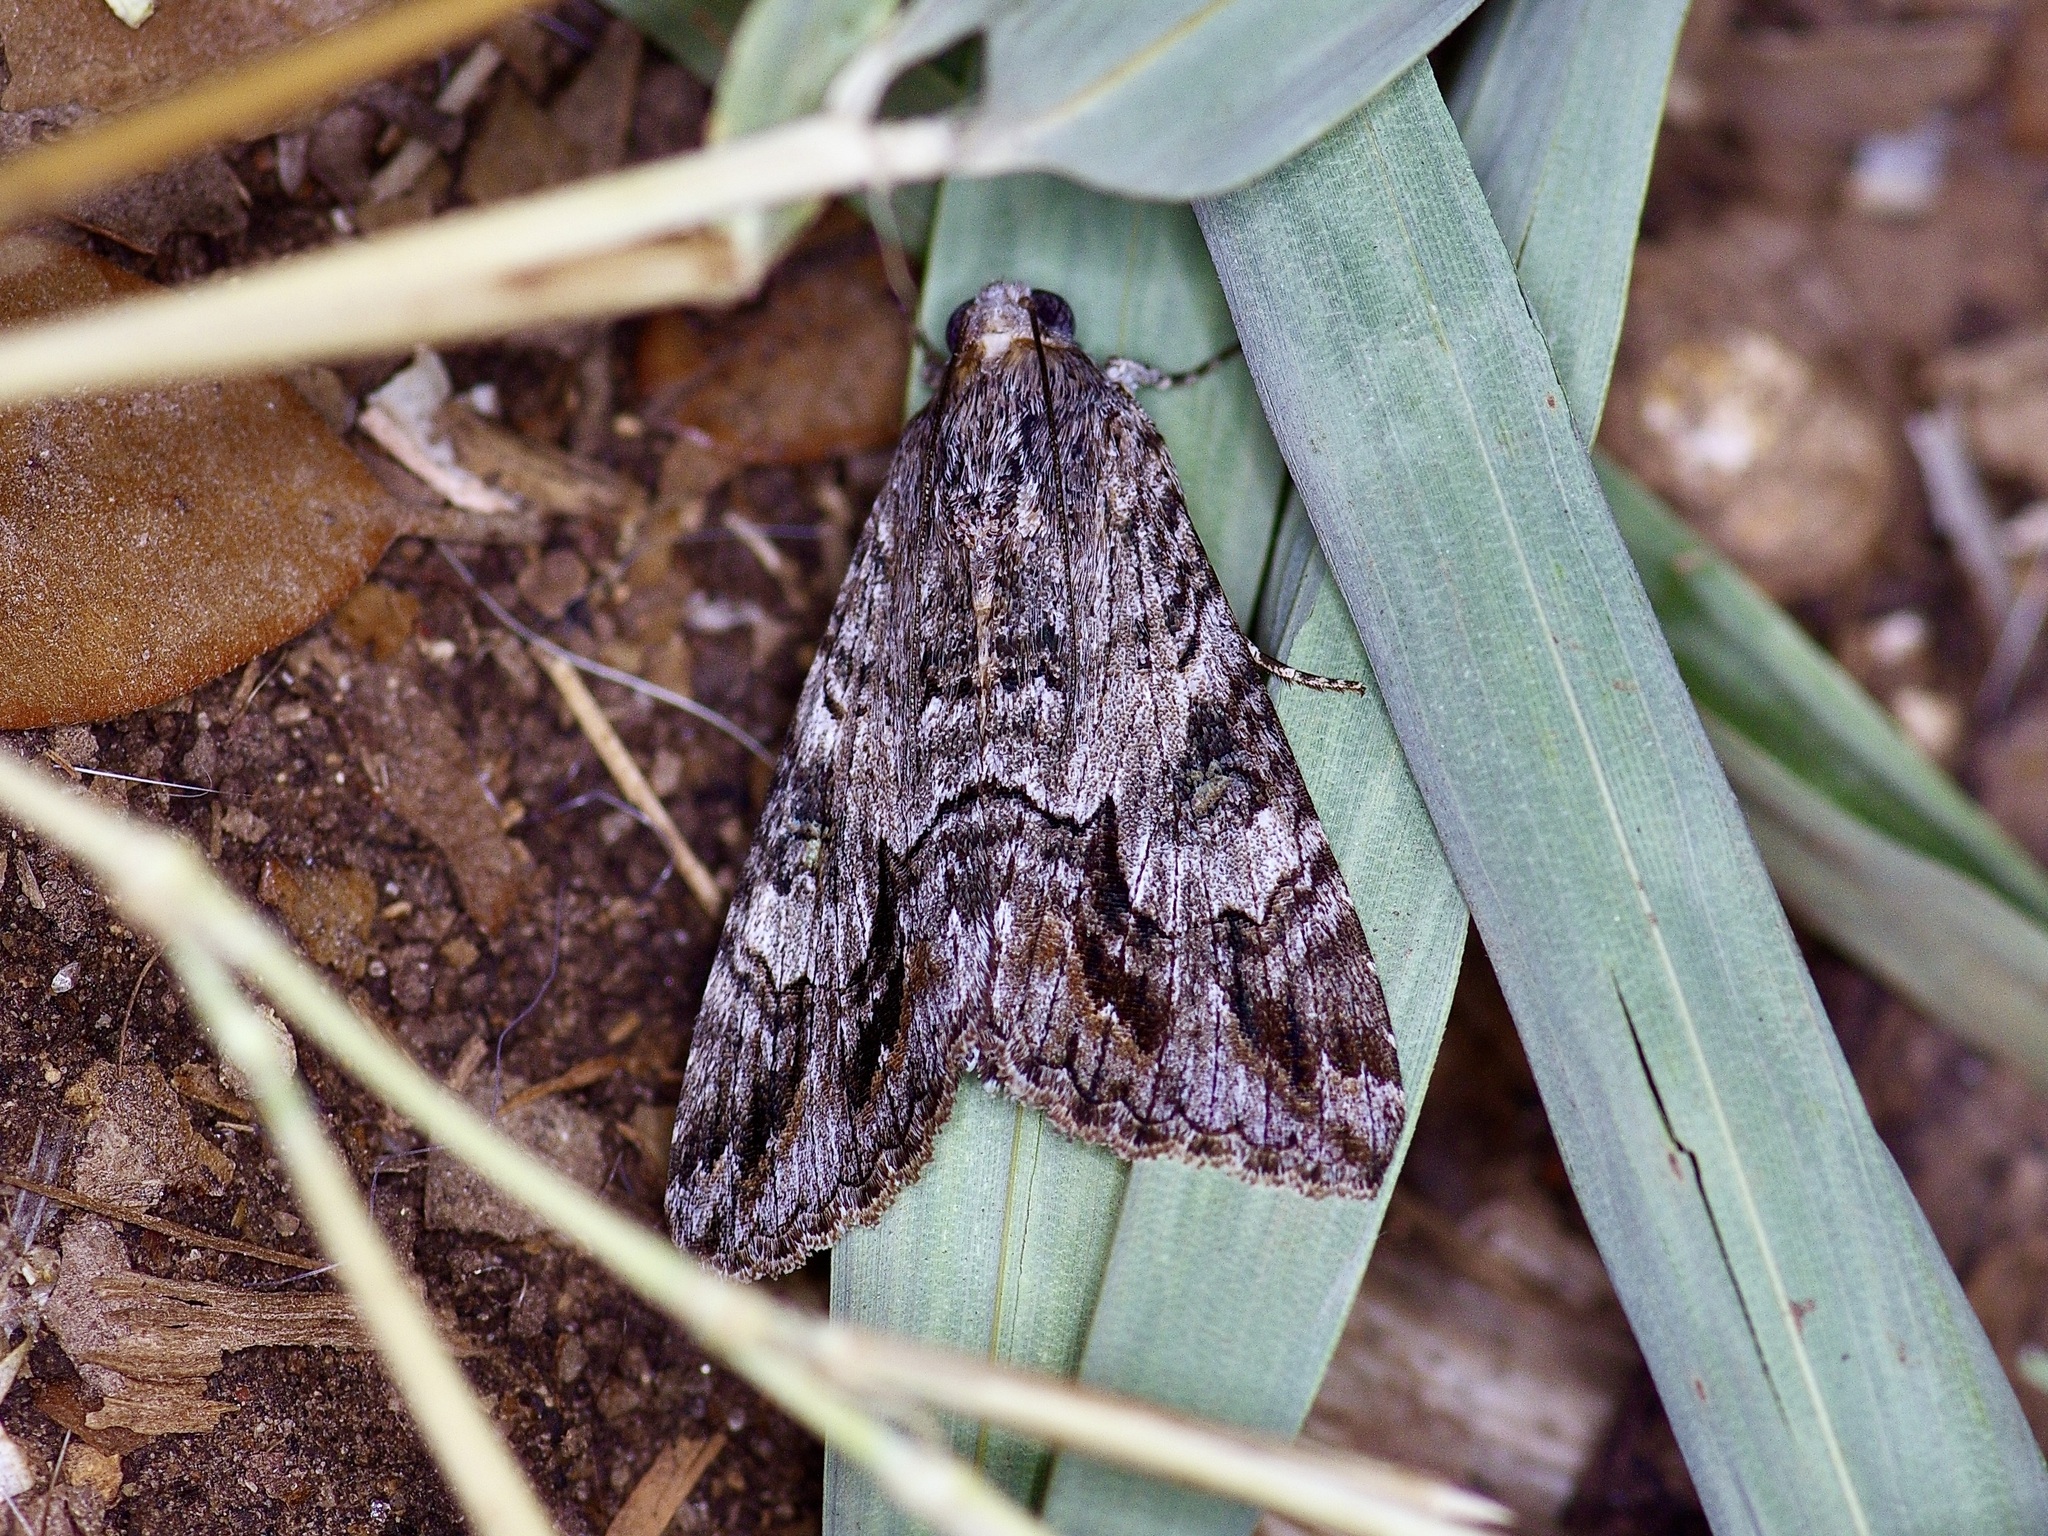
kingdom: Animalia
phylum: Arthropoda
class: Insecta
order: Lepidoptera
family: Erebidae
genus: Melipotis
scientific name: Melipotis jucunda
